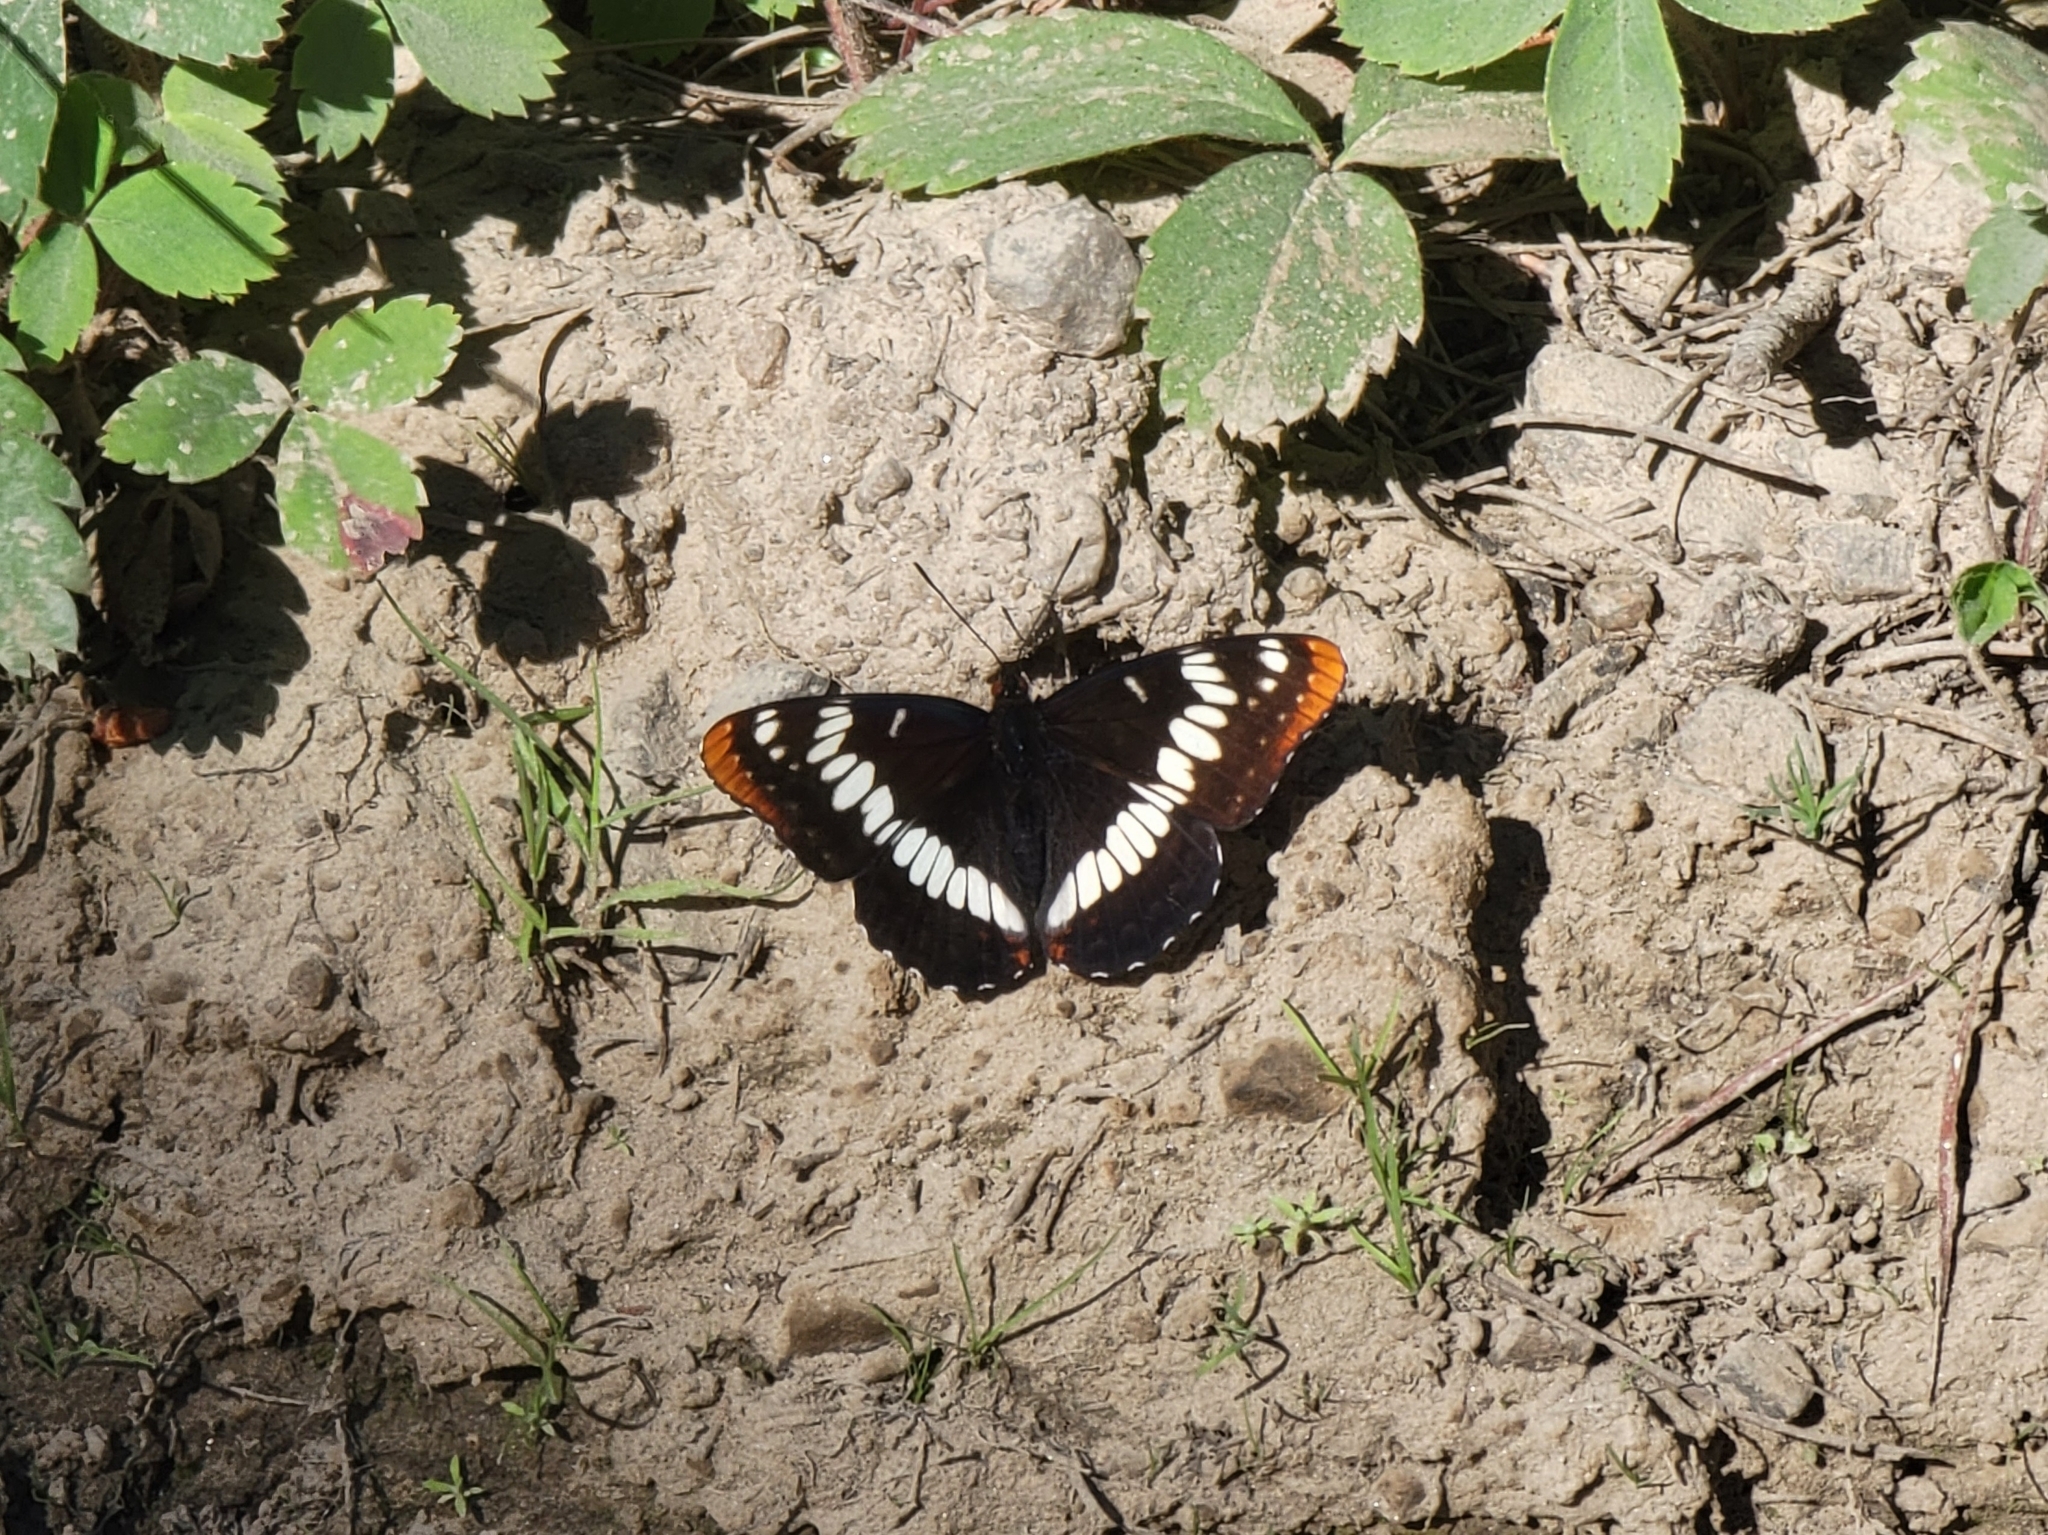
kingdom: Animalia
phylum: Arthropoda
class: Insecta
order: Lepidoptera
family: Nymphalidae
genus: Limenitis
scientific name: Limenitis lorquini
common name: Lorquin's admiral
